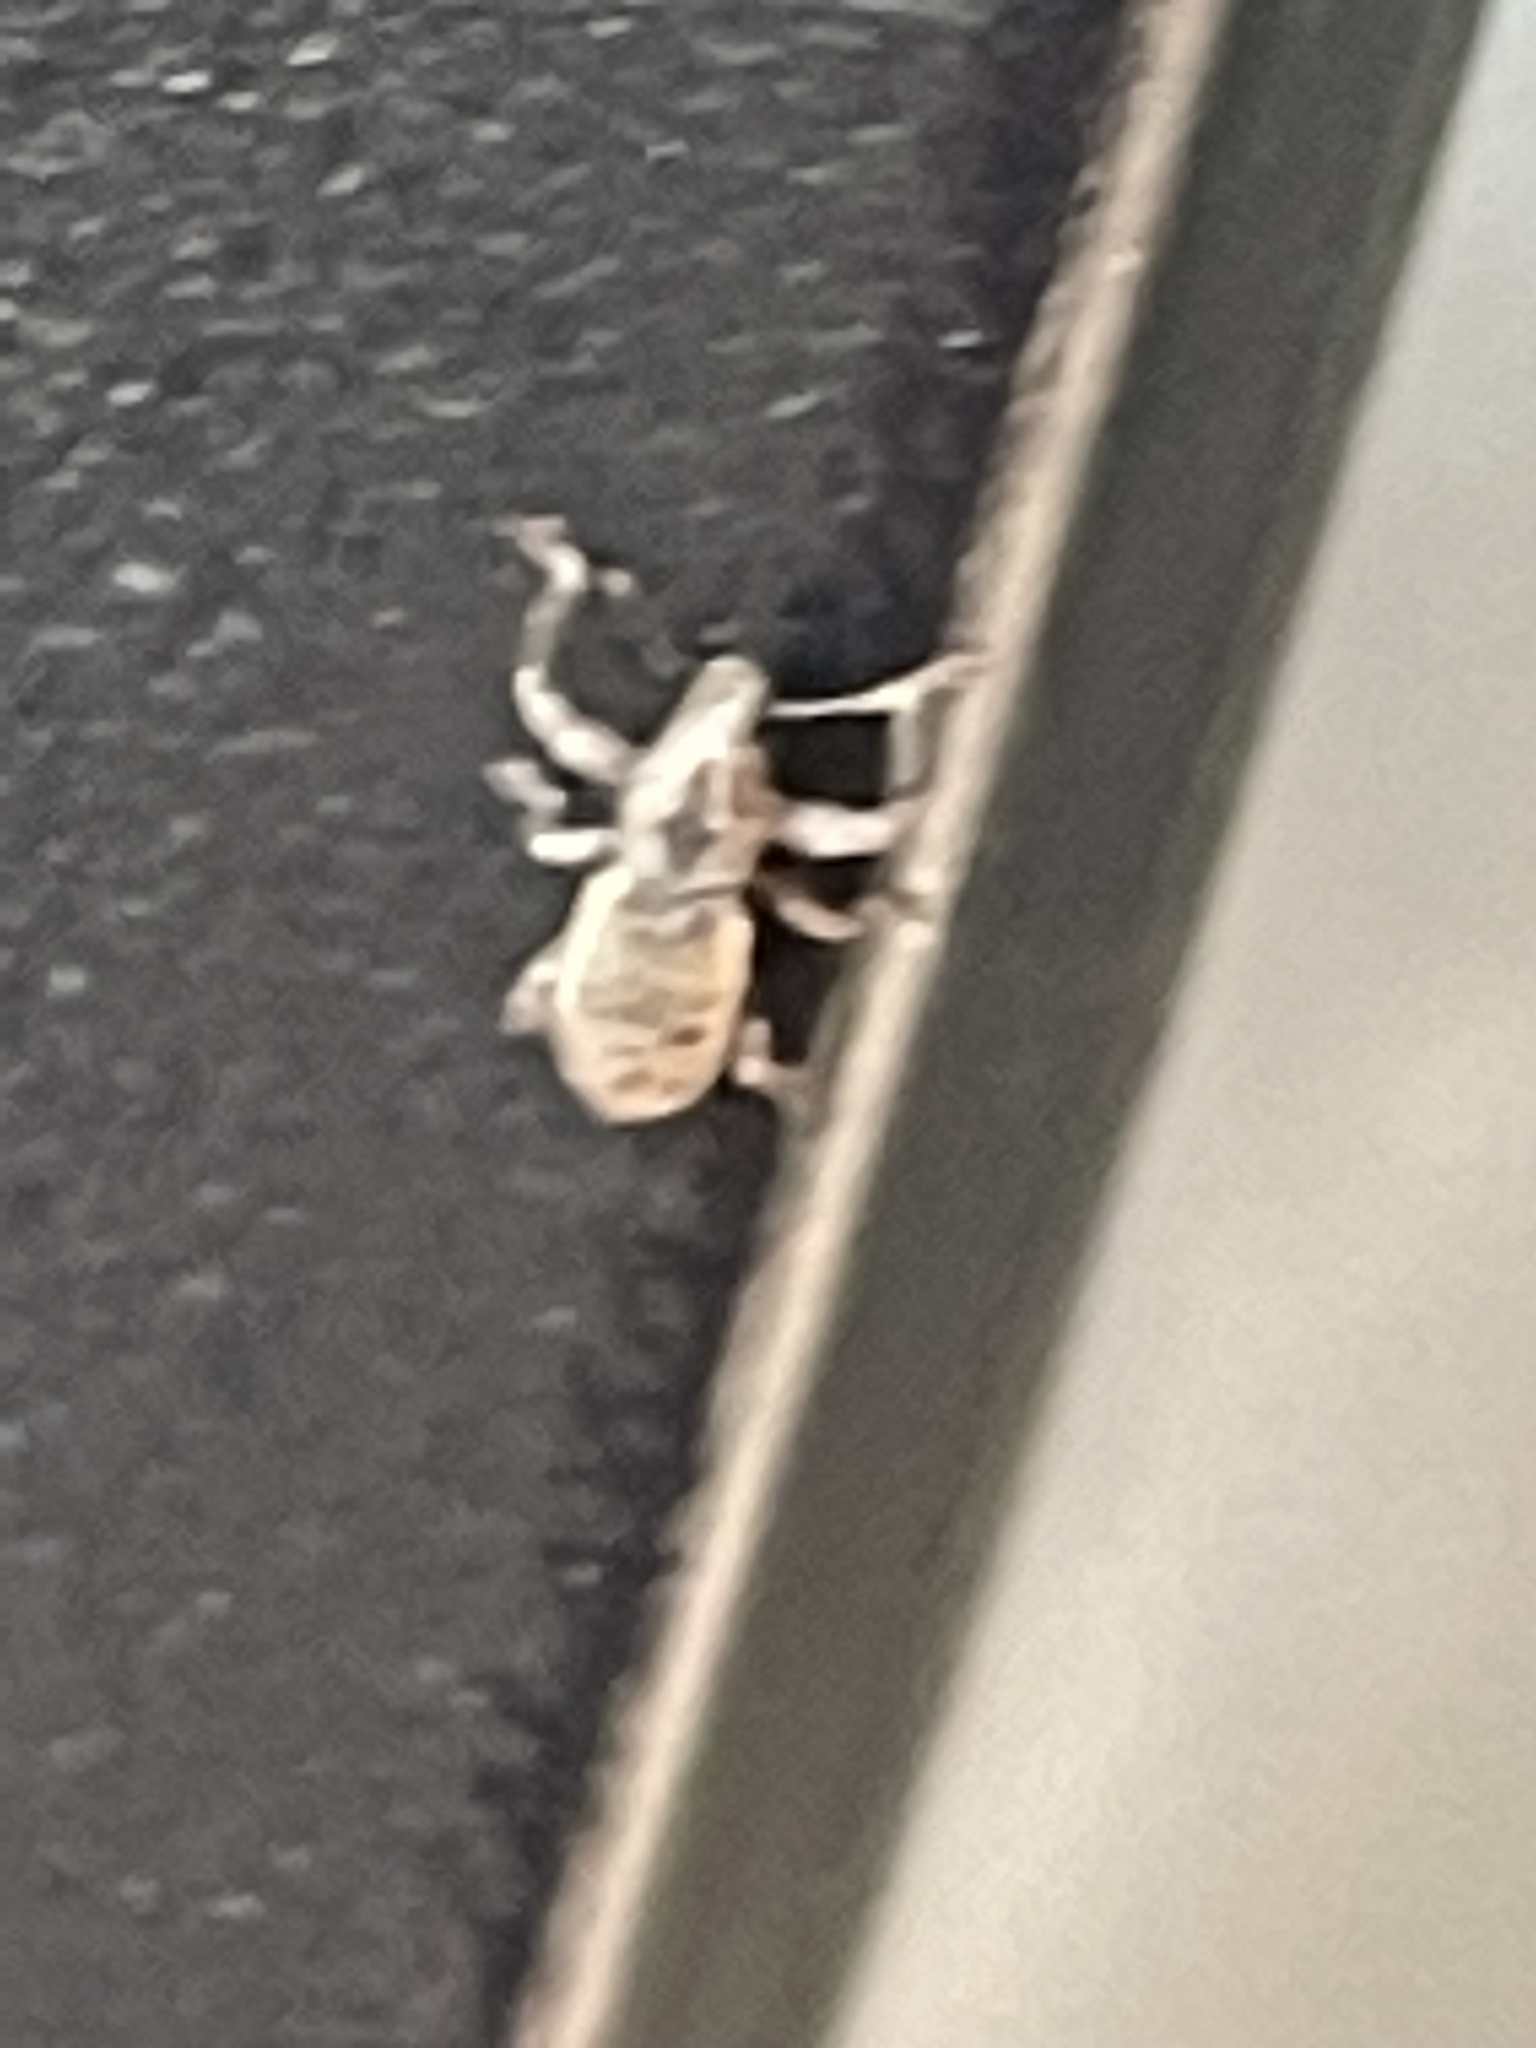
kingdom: Animalia
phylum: Arthropoda
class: Insecta
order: Coleoptera
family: Curculionidae
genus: Pandeleteius
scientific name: Pandeleteius hilaris
